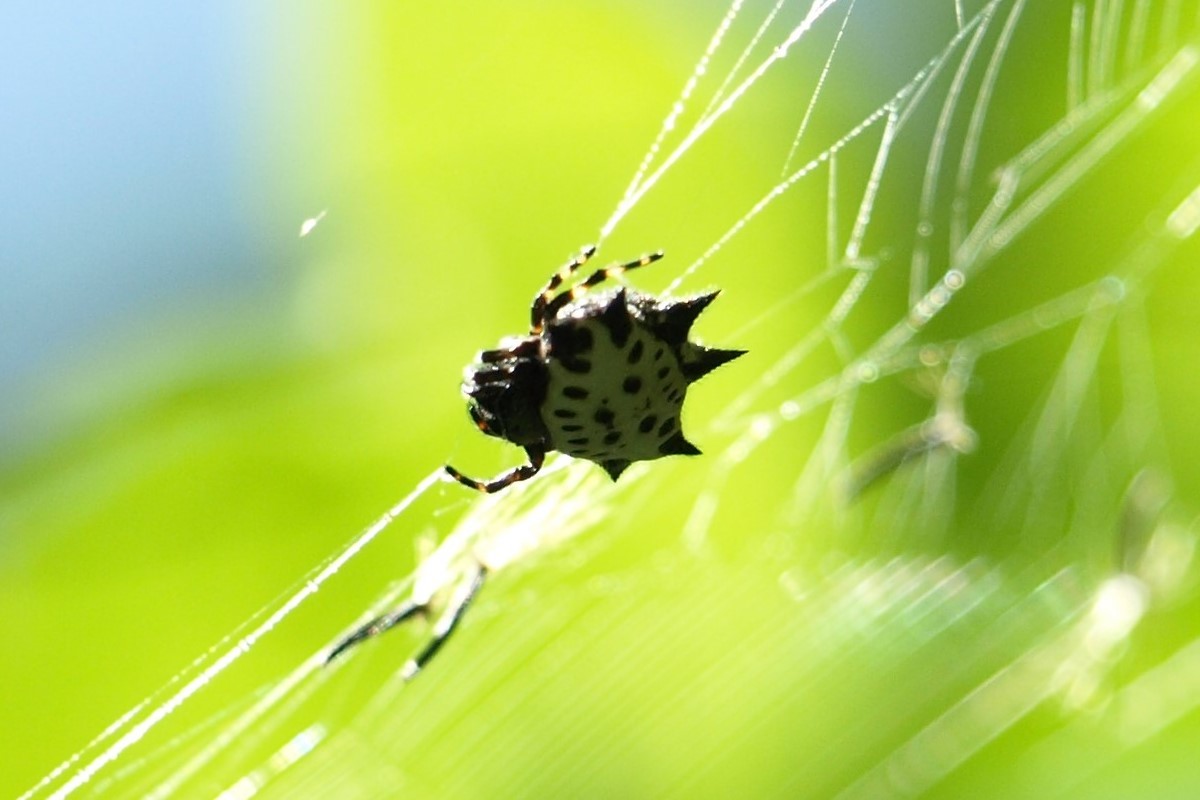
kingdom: Animalia
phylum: Arthropoda
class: Arachnida
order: Araneae
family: Araneidae
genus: Gasteracantha
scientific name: Gasteracantha cancriformis
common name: Orb weavers
